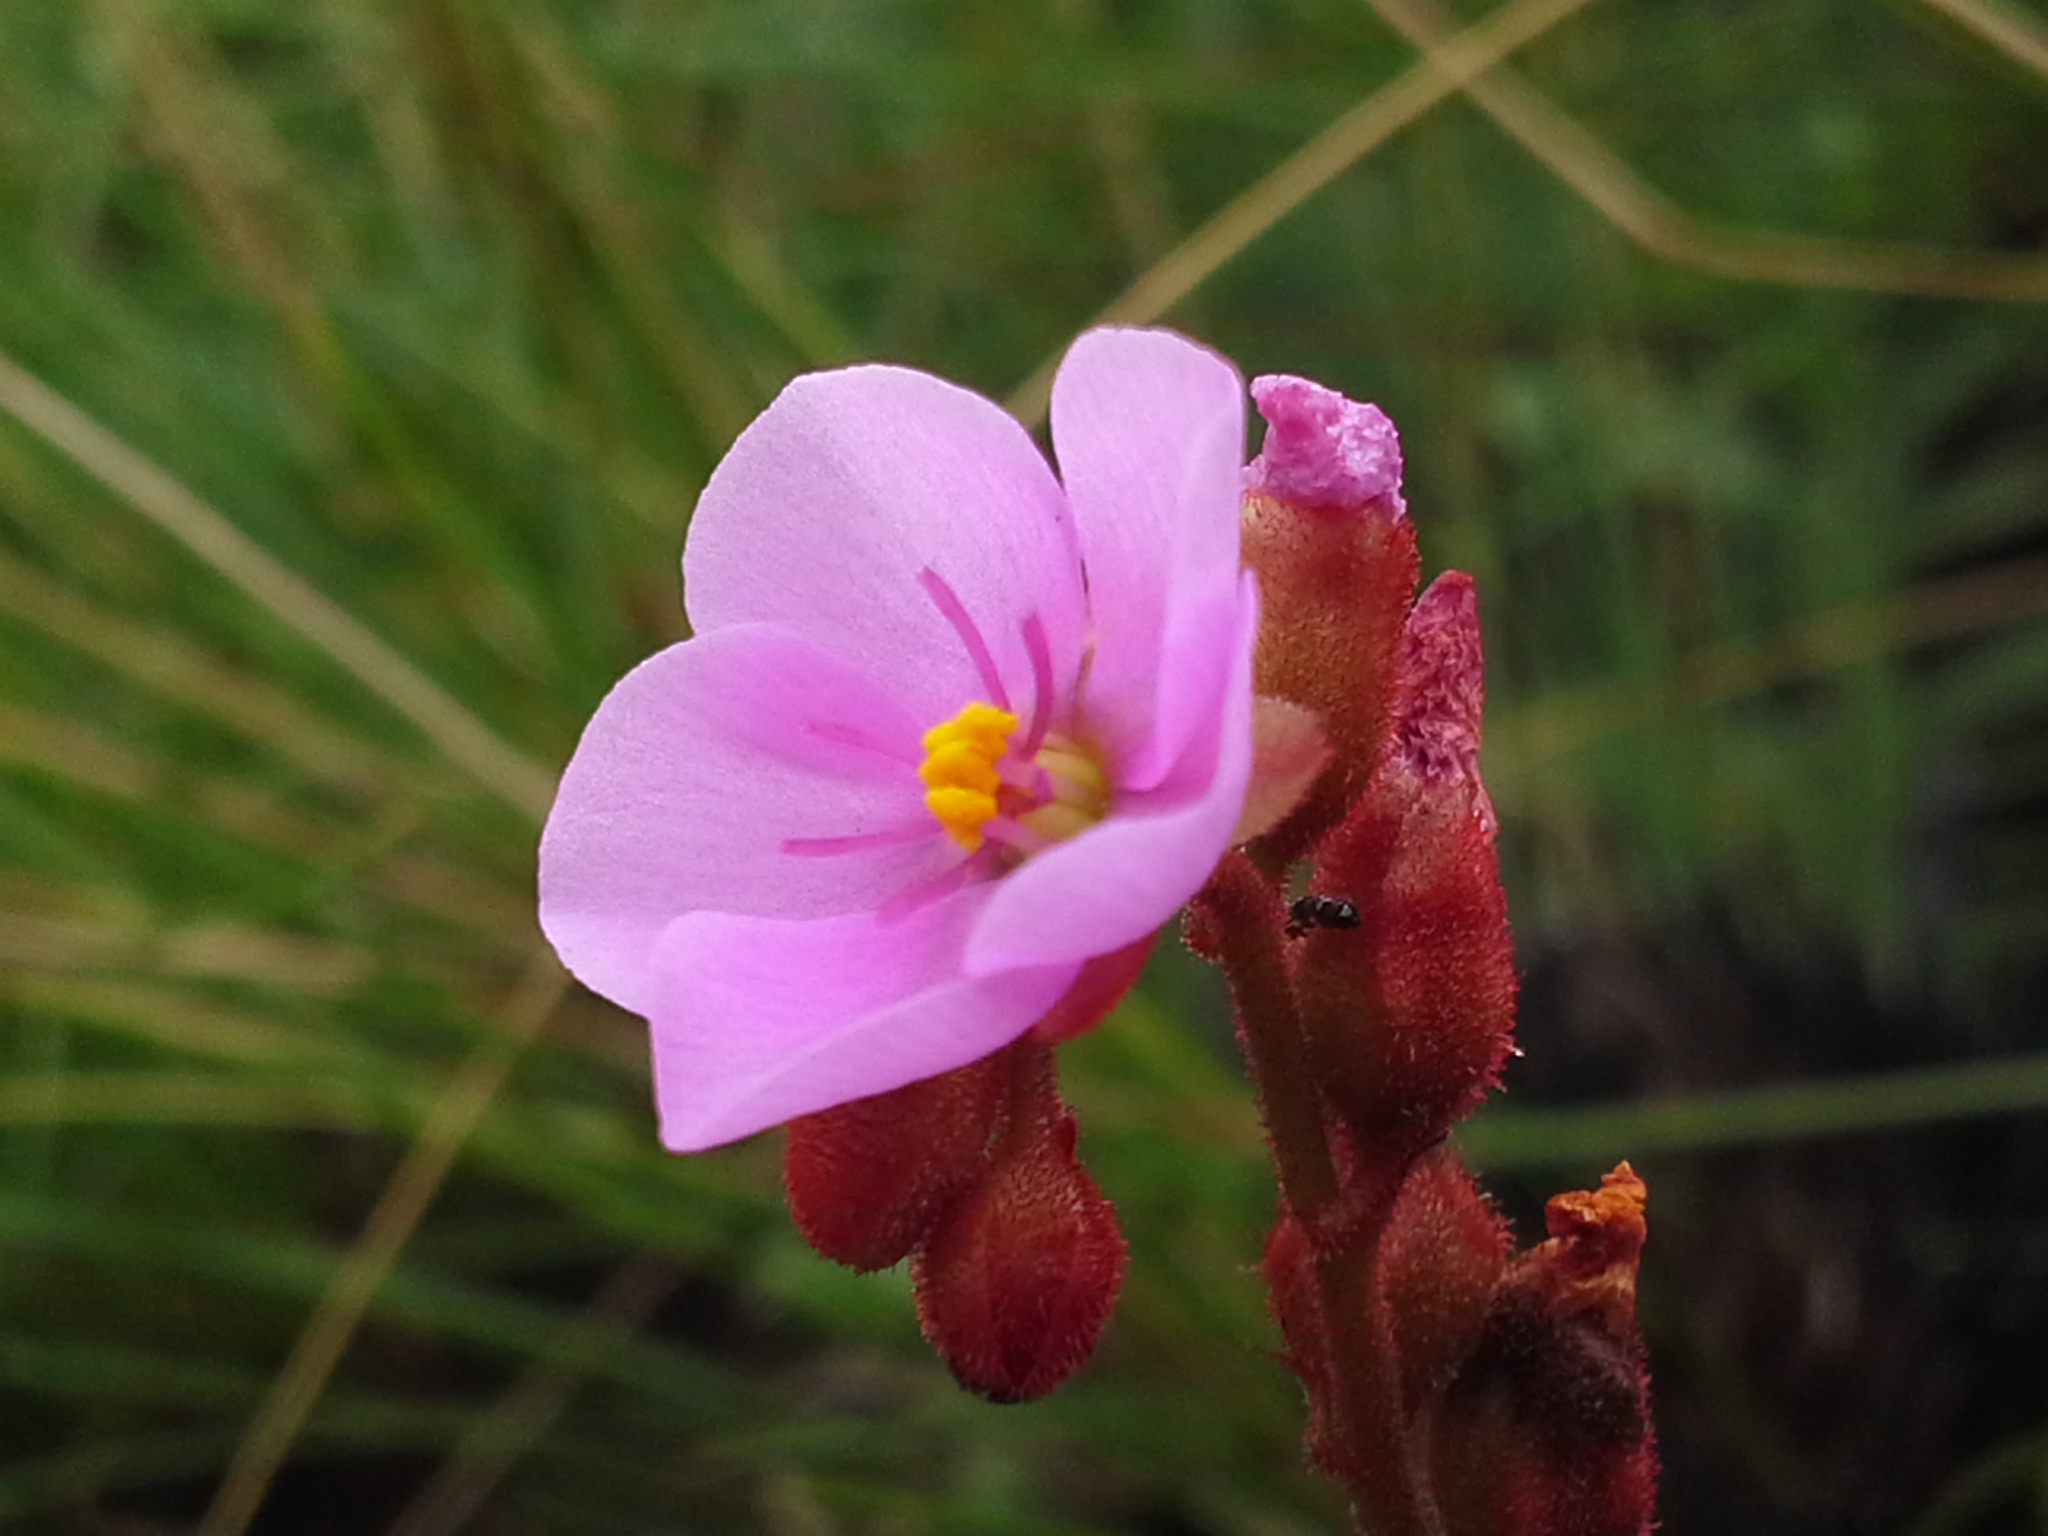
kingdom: Plantae
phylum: Tracheophyta
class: Magnoliopsida
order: Caryophyllales
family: Droseraceae
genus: Drosera
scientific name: Drosera dielsiana
